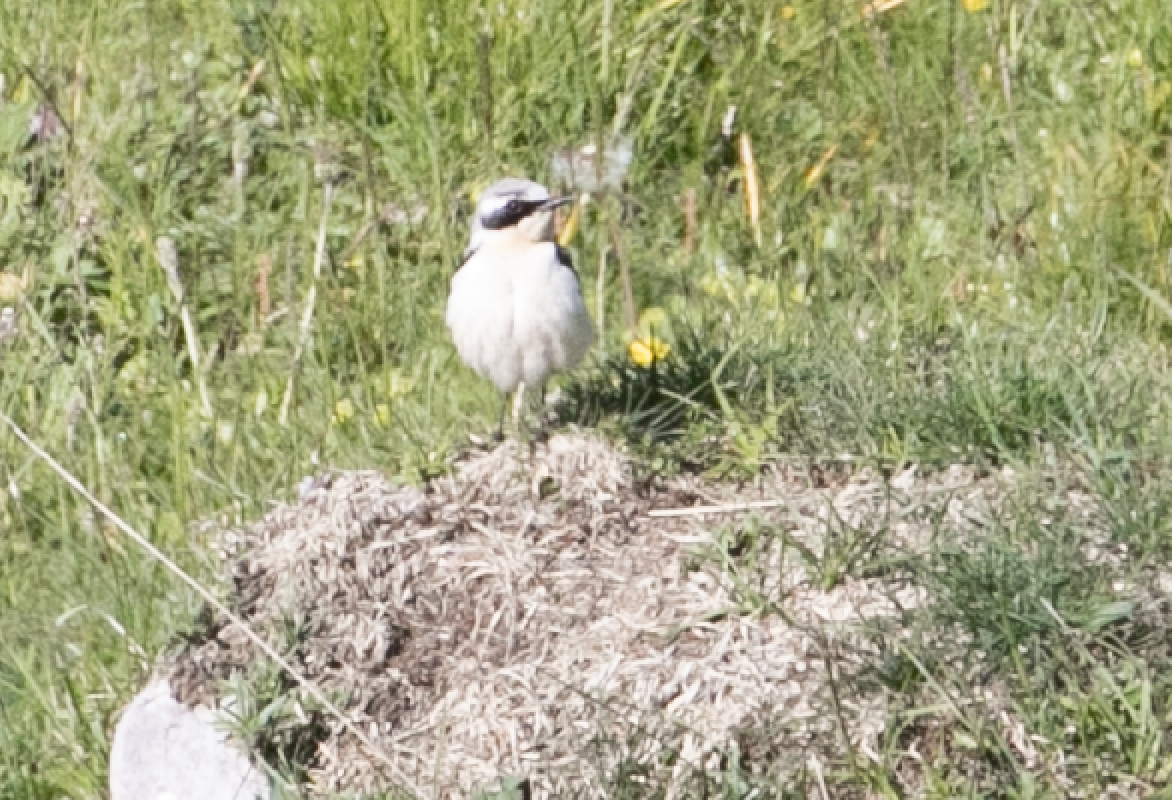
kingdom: Animalia
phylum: Chordata
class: Aves
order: Passeriformes
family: Muscicapidae
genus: Oenanthe
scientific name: Oenanthe oenanthe
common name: Northern wheatear
